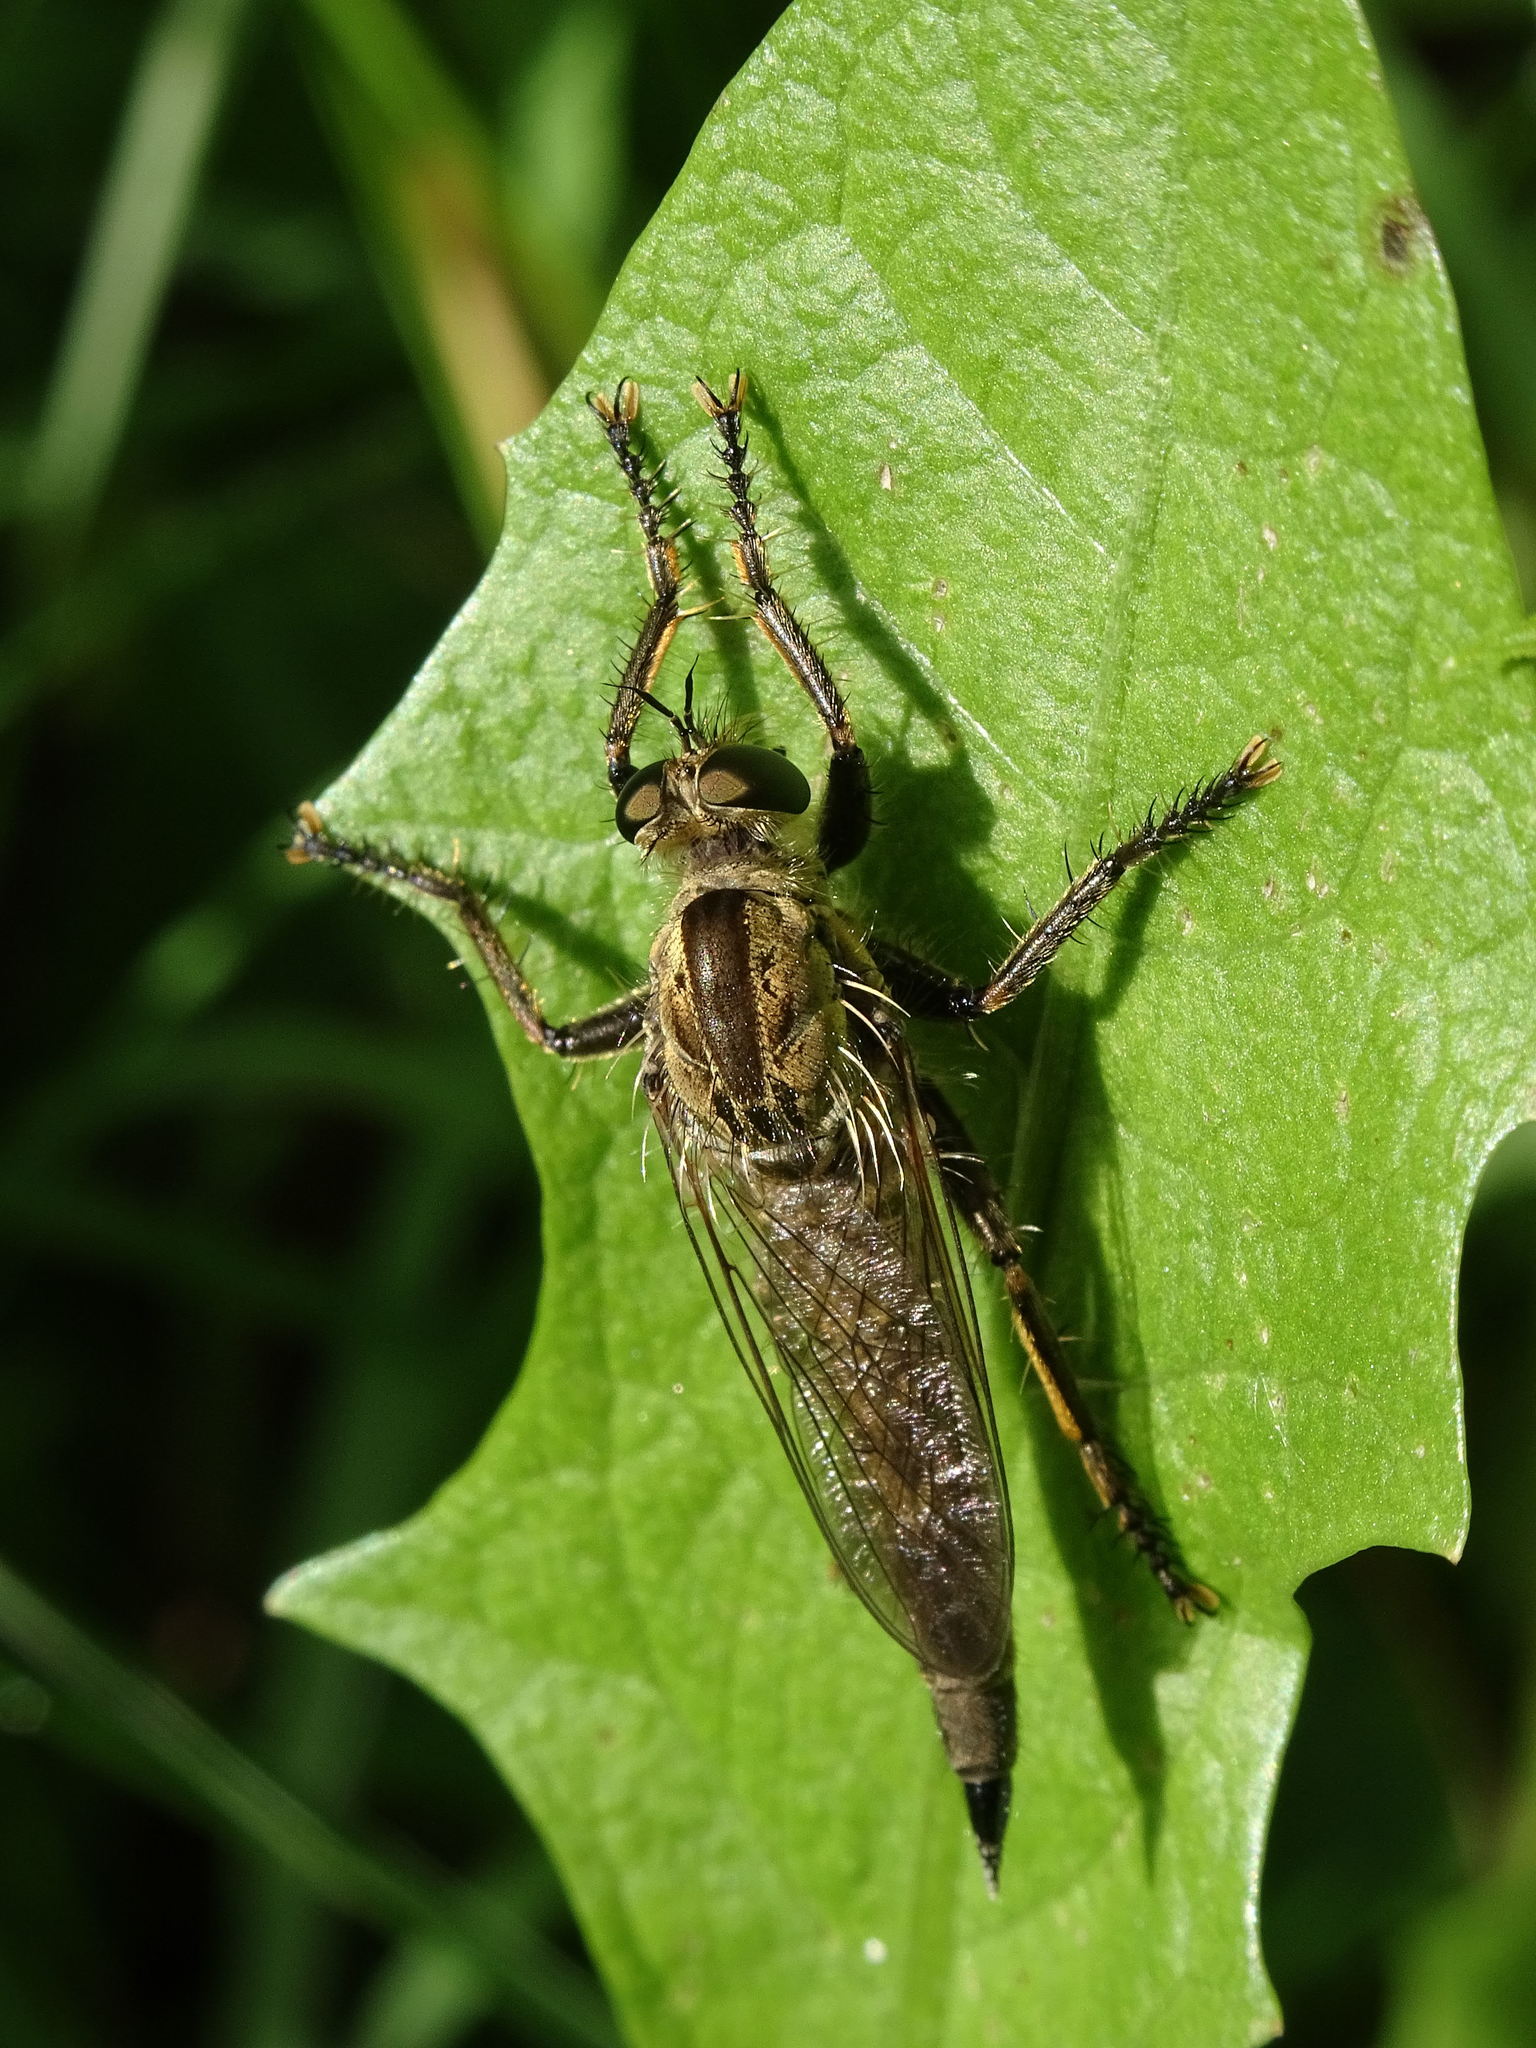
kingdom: Animalia
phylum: Arthropoda
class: Insecta
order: Diptera
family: Asilidae
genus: Machimus
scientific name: Machimus rusticus
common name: Downland robberfly
